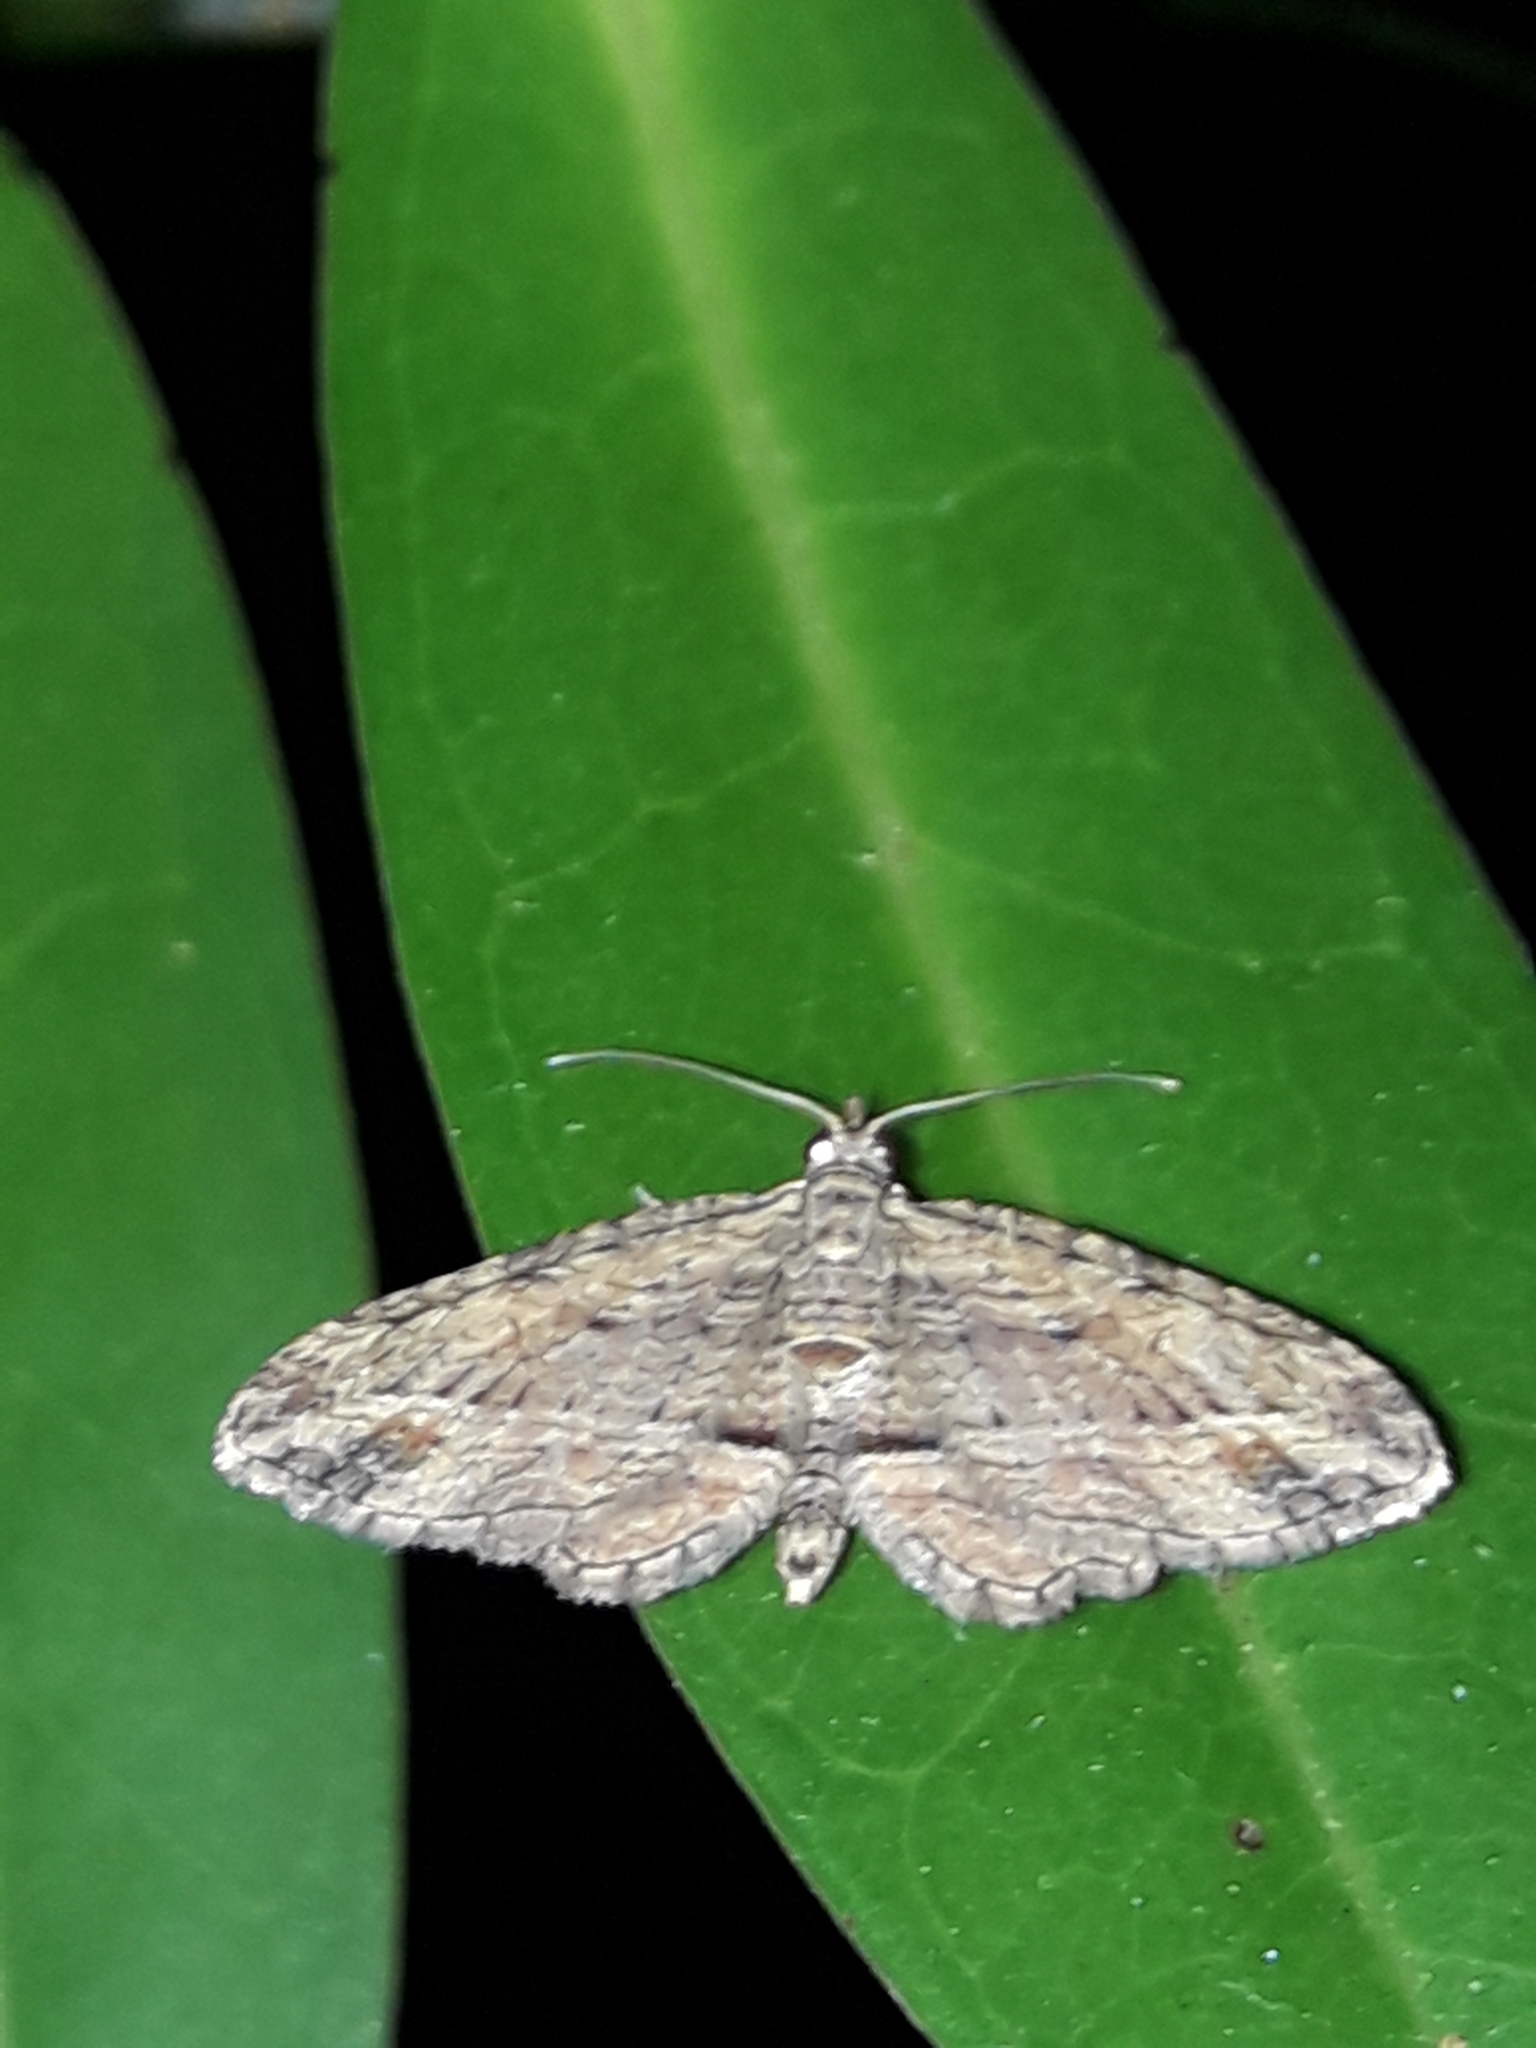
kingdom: Animalia
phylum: Arthropoda
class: Insecta
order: Lepidoptera
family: Geometridae
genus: Chloroclystis
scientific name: Chloroclystis filata
